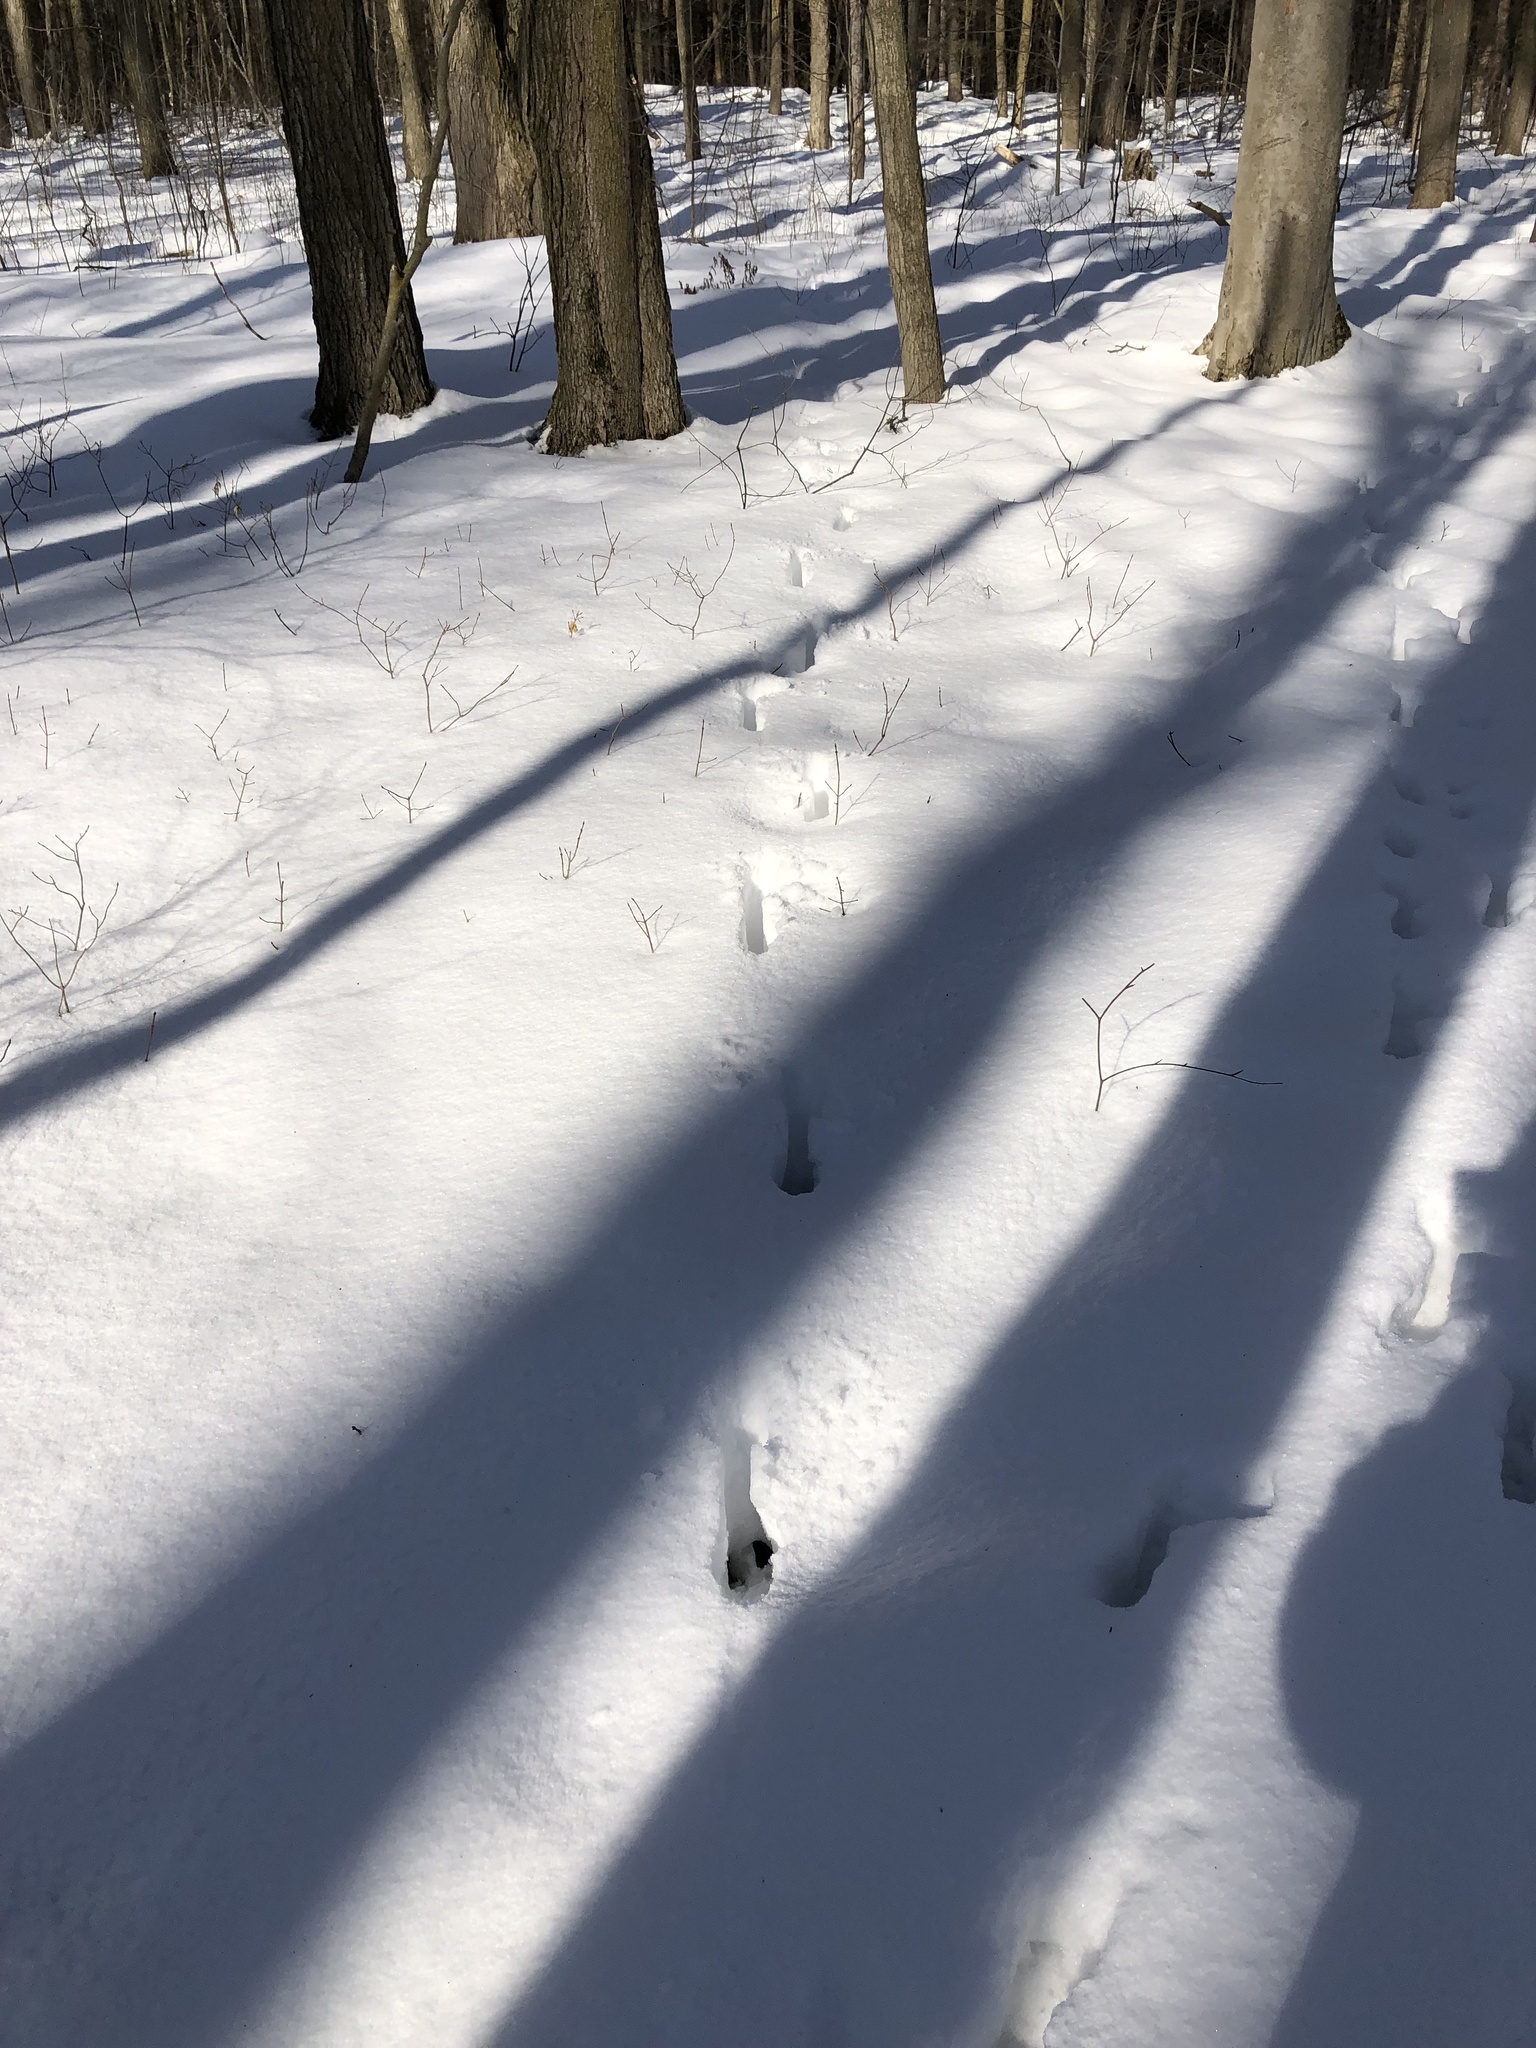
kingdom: Animalia
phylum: Chordata
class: Mammalia
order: Artiodactyla
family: Cervidae
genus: Odocoileus
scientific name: Odocoileus virginianus
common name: White-tailed deer
